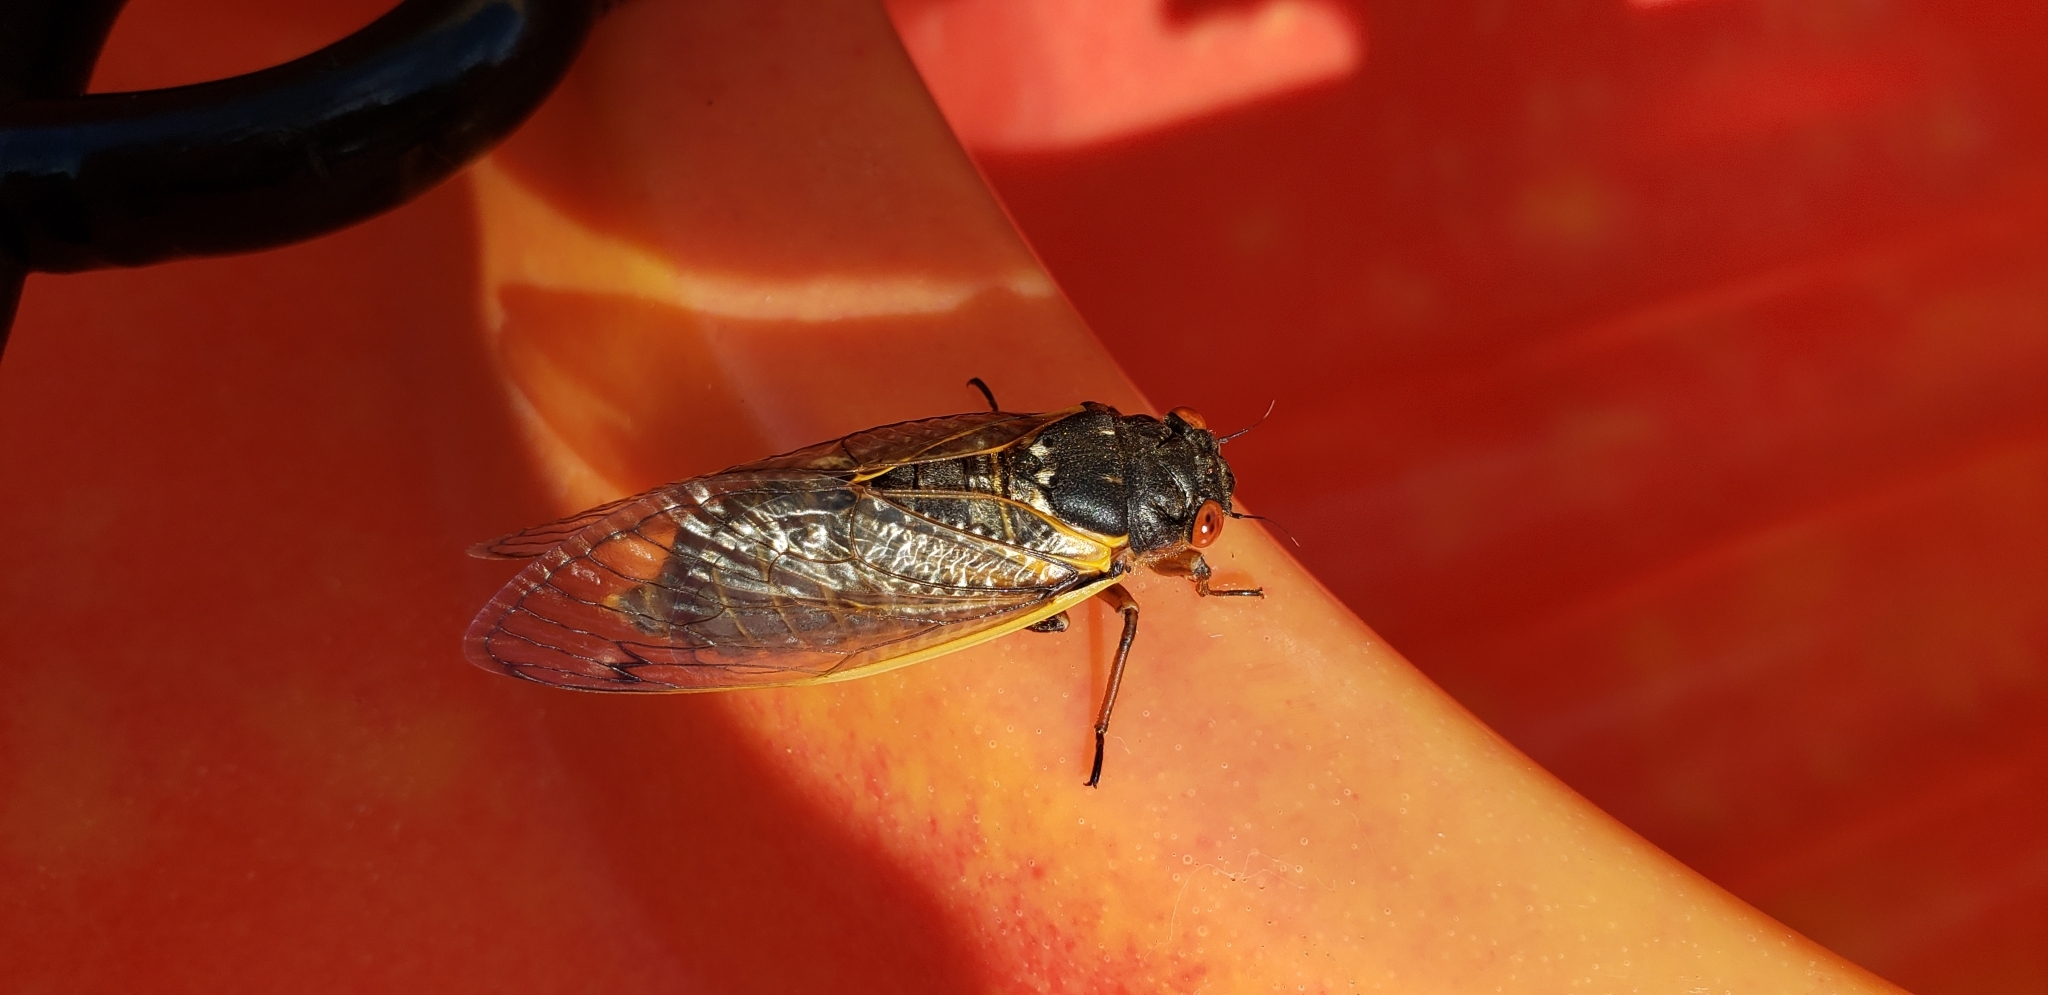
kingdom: Animalia
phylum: Arthropoda
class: Insecta
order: Hemiptera
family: Cicadidae
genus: Magicicada
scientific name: Magicicada septendecim
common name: Periodical cicada
